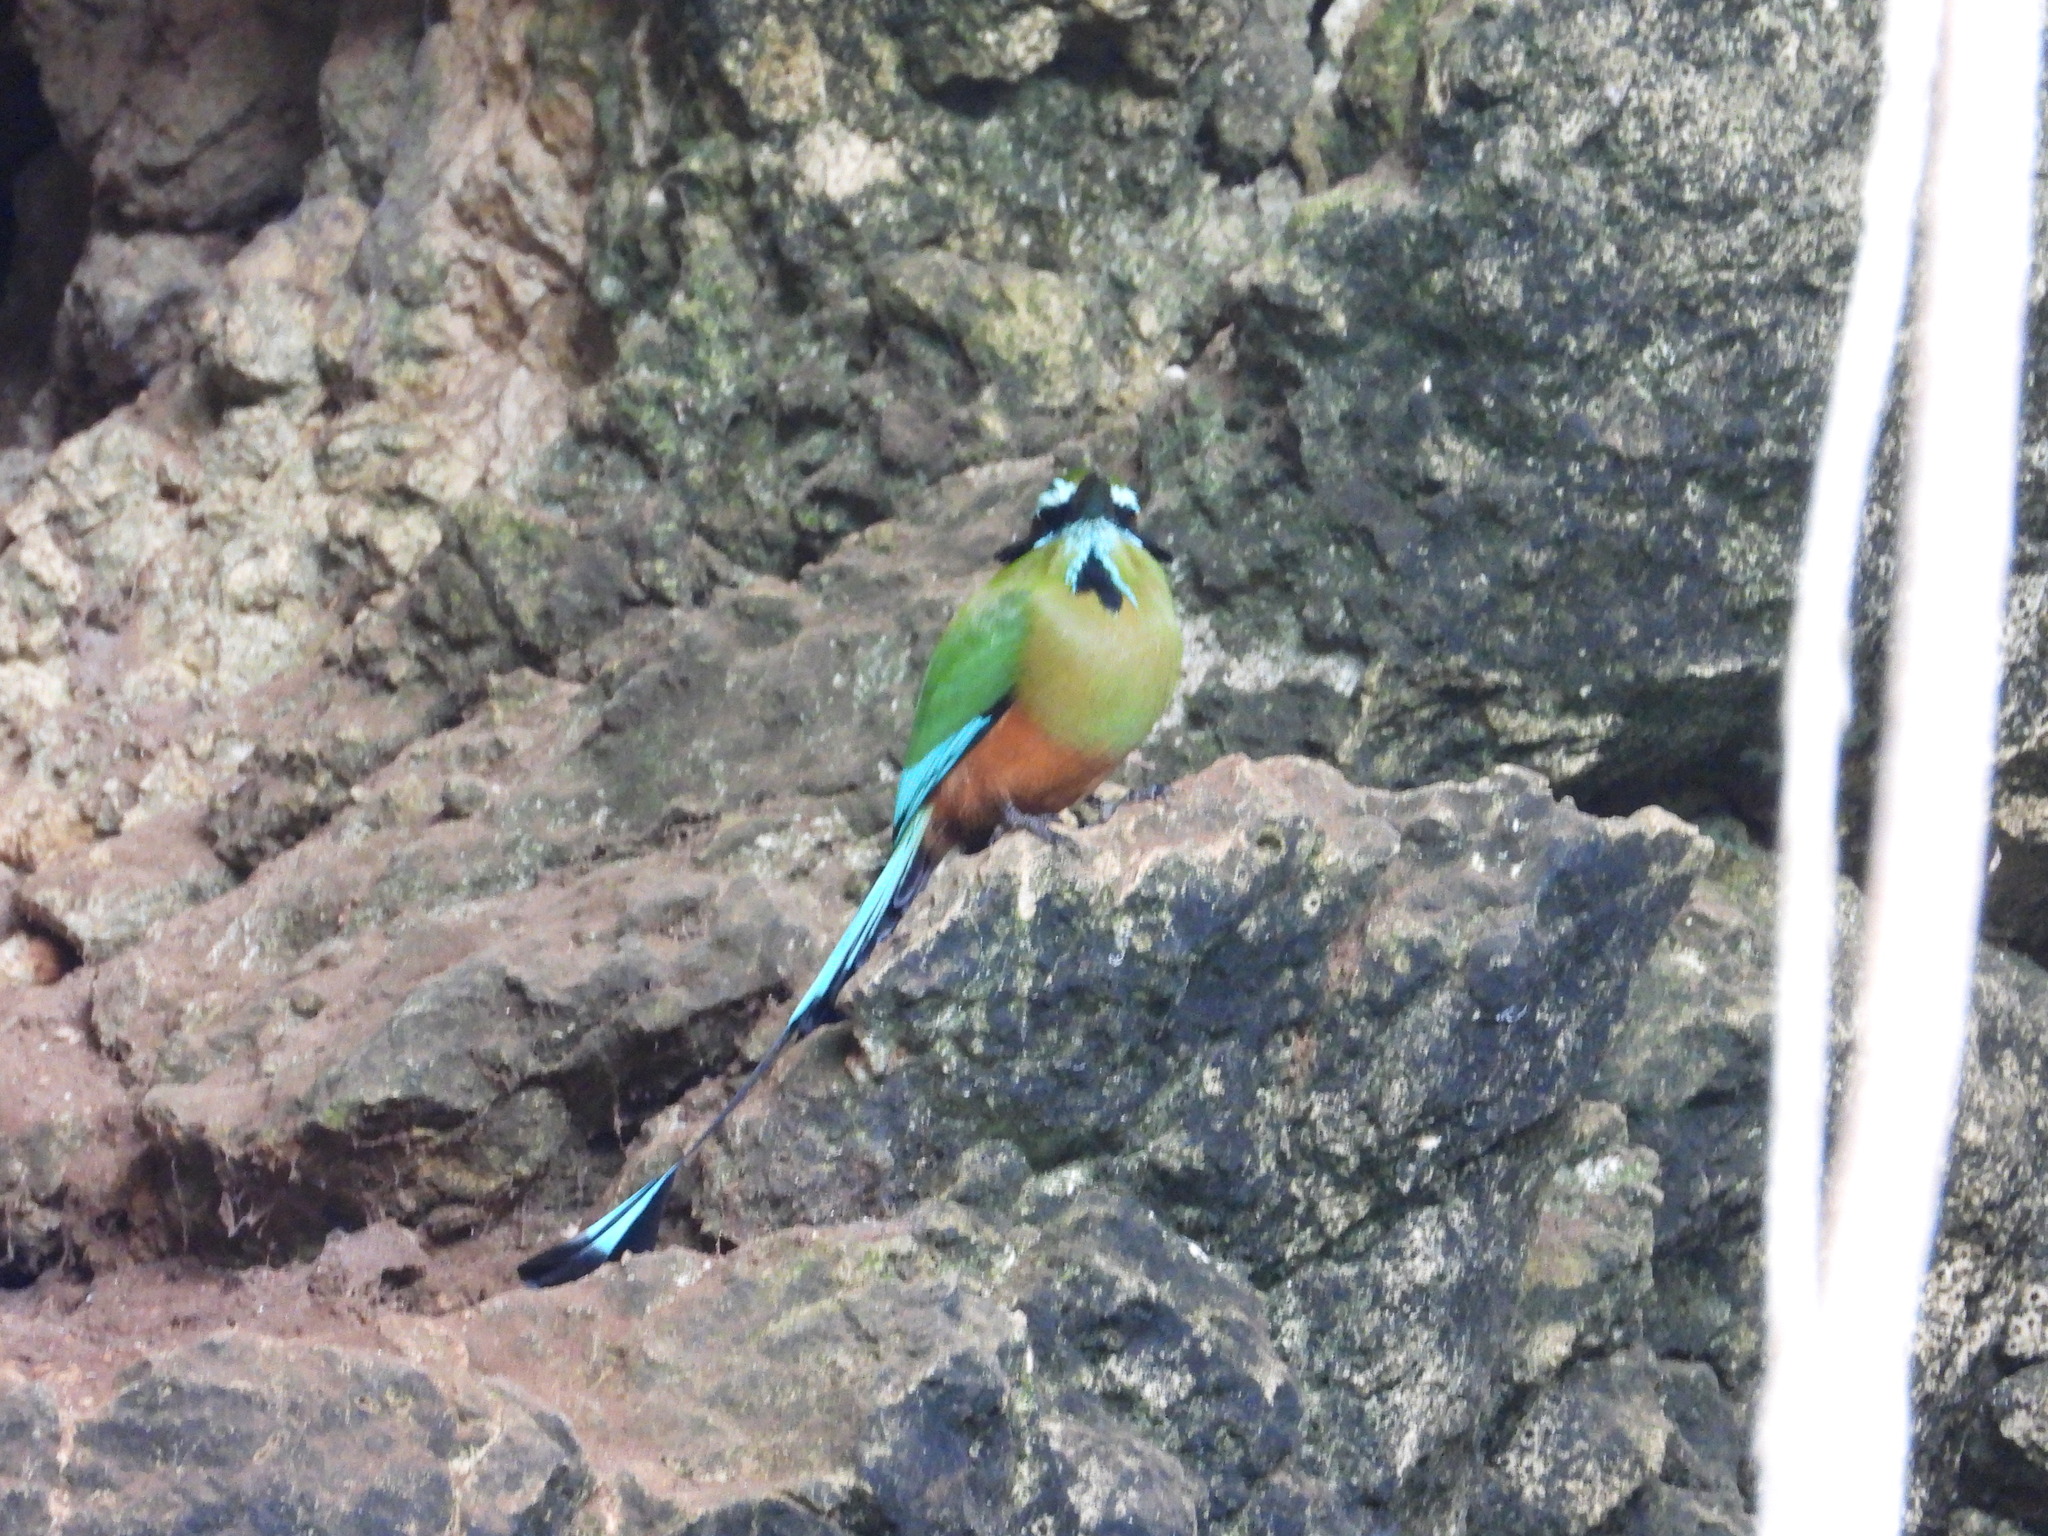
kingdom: Animalia
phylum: Chordata
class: Aves
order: Coraciiformes
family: Momotidae
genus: Eumomota
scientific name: Eumomota superciliosa
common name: Turquoise-browed motmot
